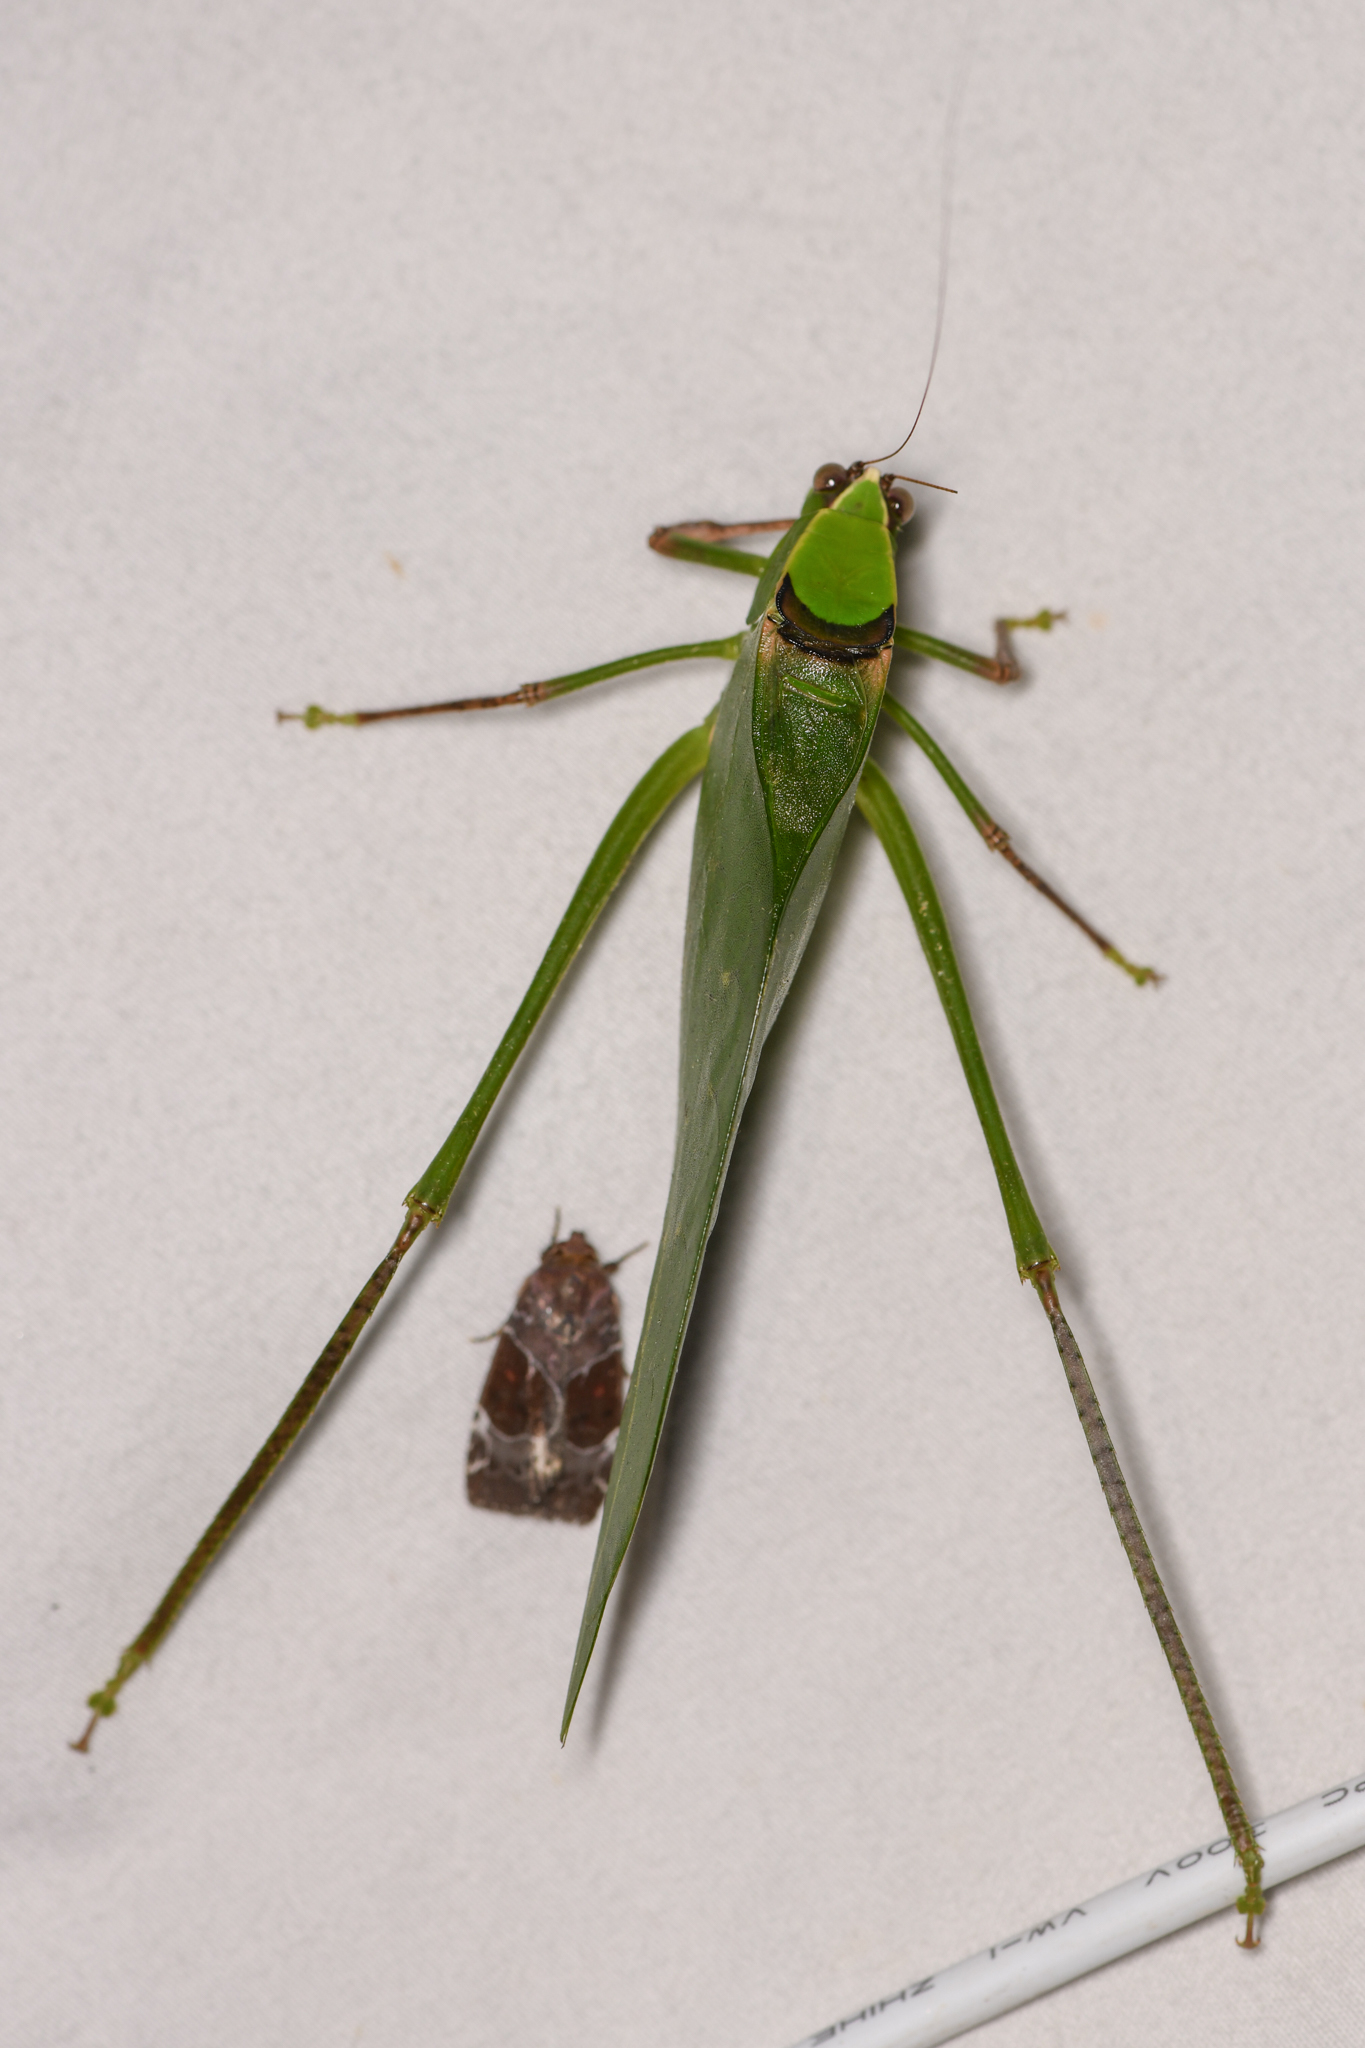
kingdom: Animalia
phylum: Arthropoda
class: Insecta
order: Orthoptera
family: Tettigoniidae
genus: Stilpnochlora
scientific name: Stilpnochlora thoracica
